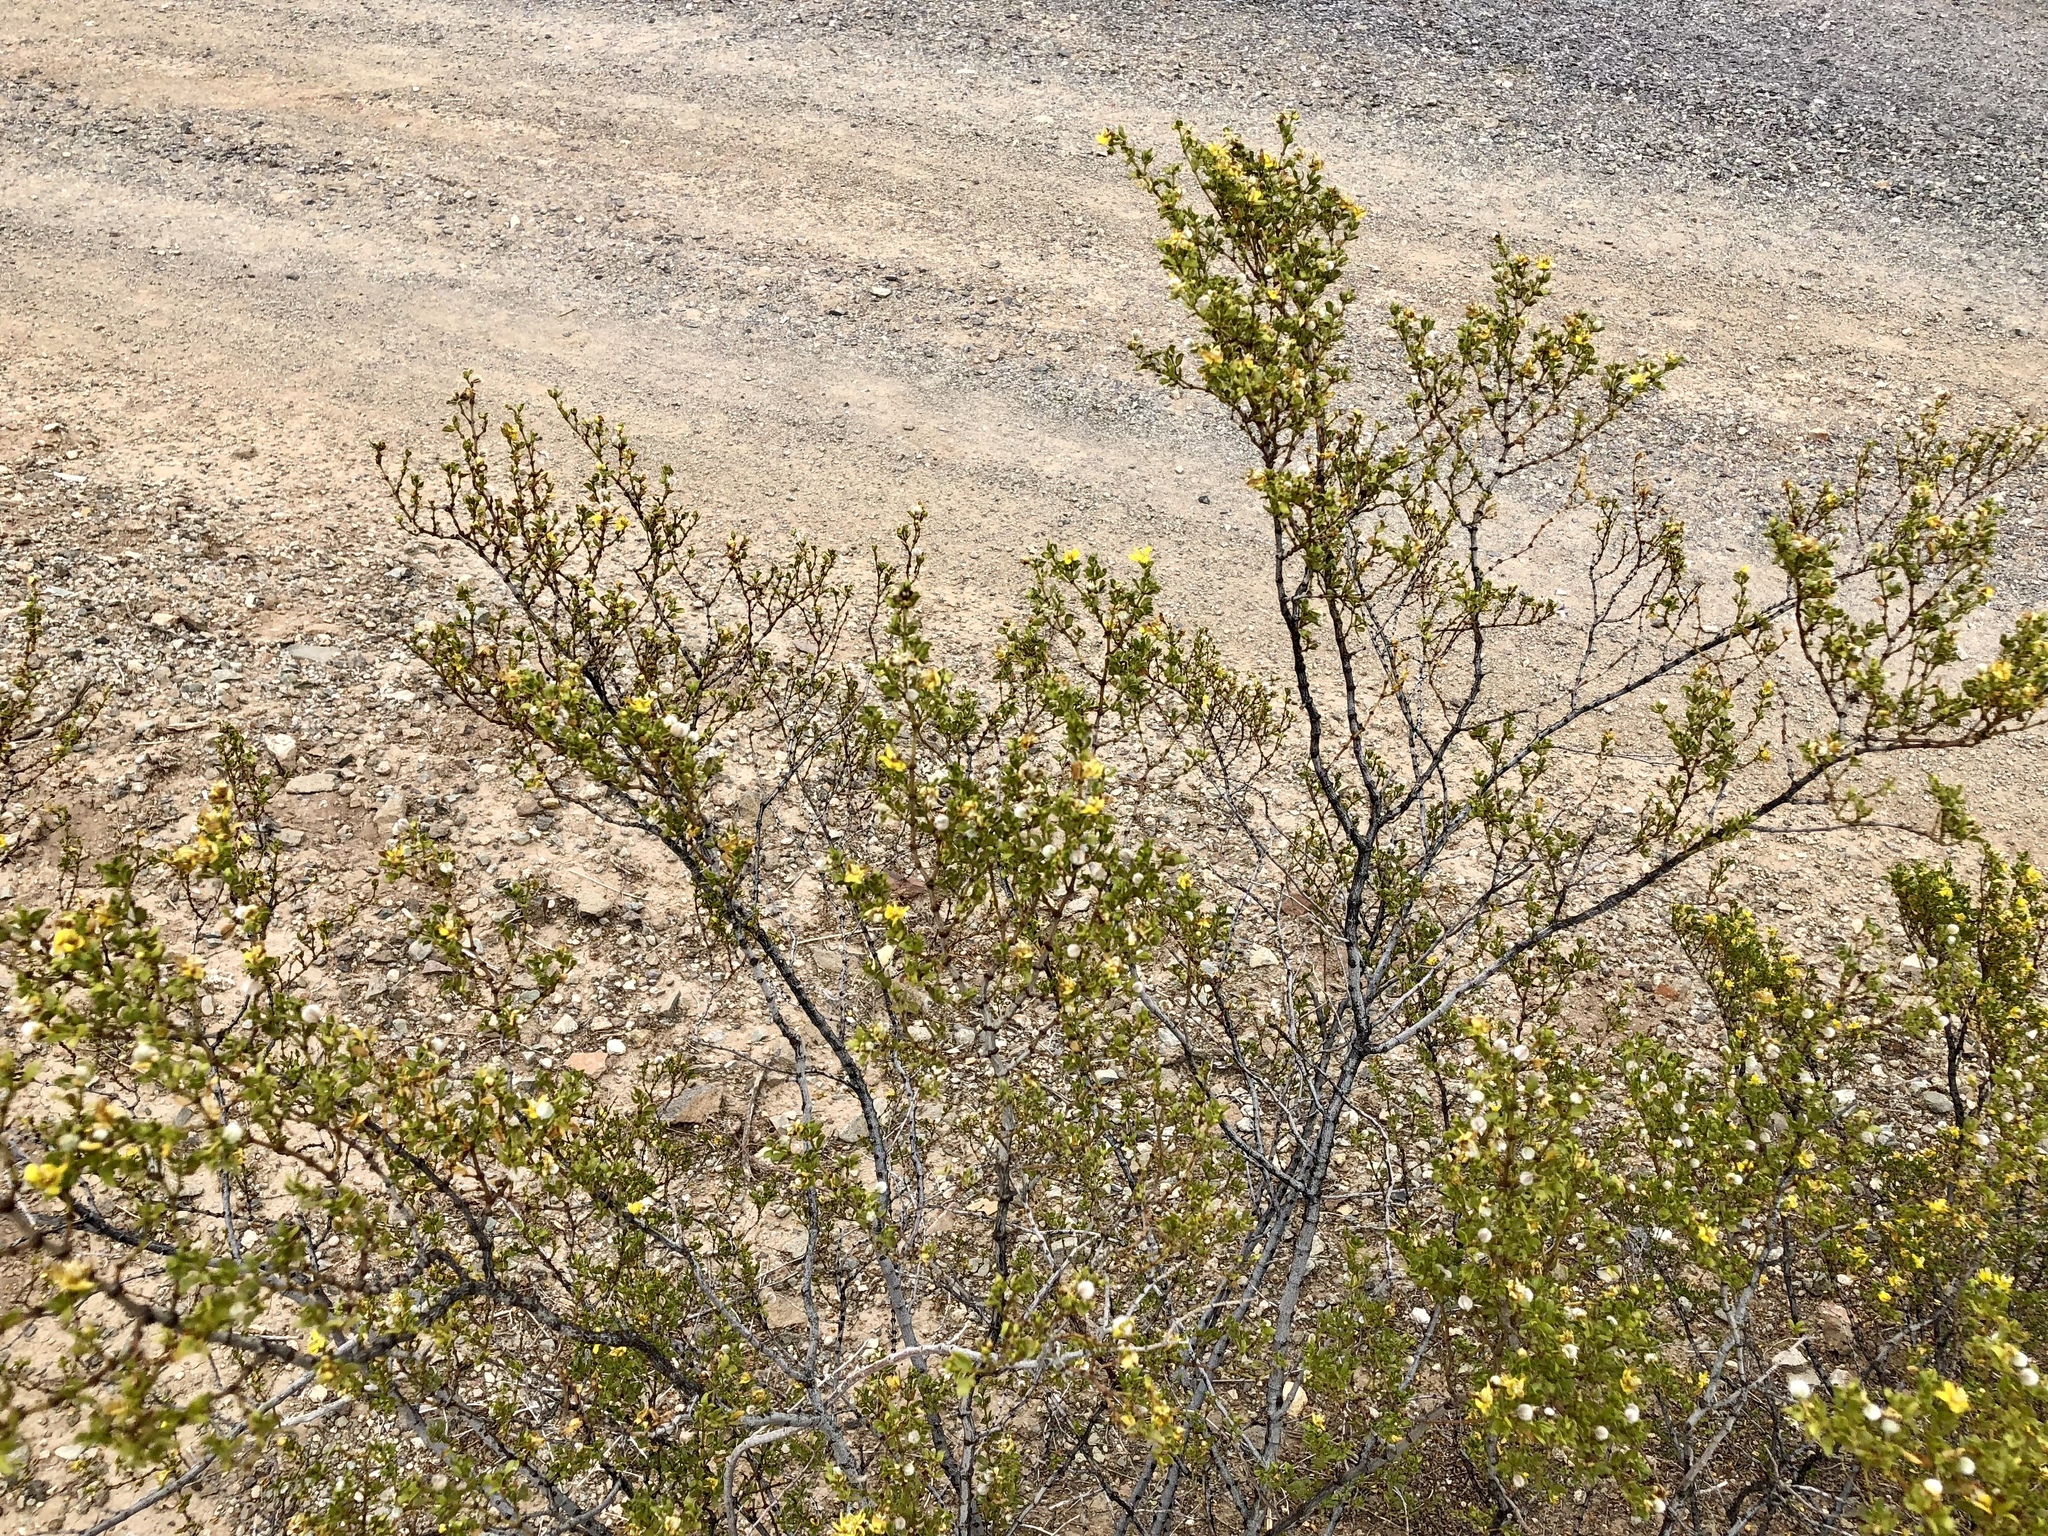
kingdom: Plantae
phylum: Tracheophyta
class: Magnoliopsida
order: Zygophyllales
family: Zygophyllaceae
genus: Larrea
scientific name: Larrea tridentata
